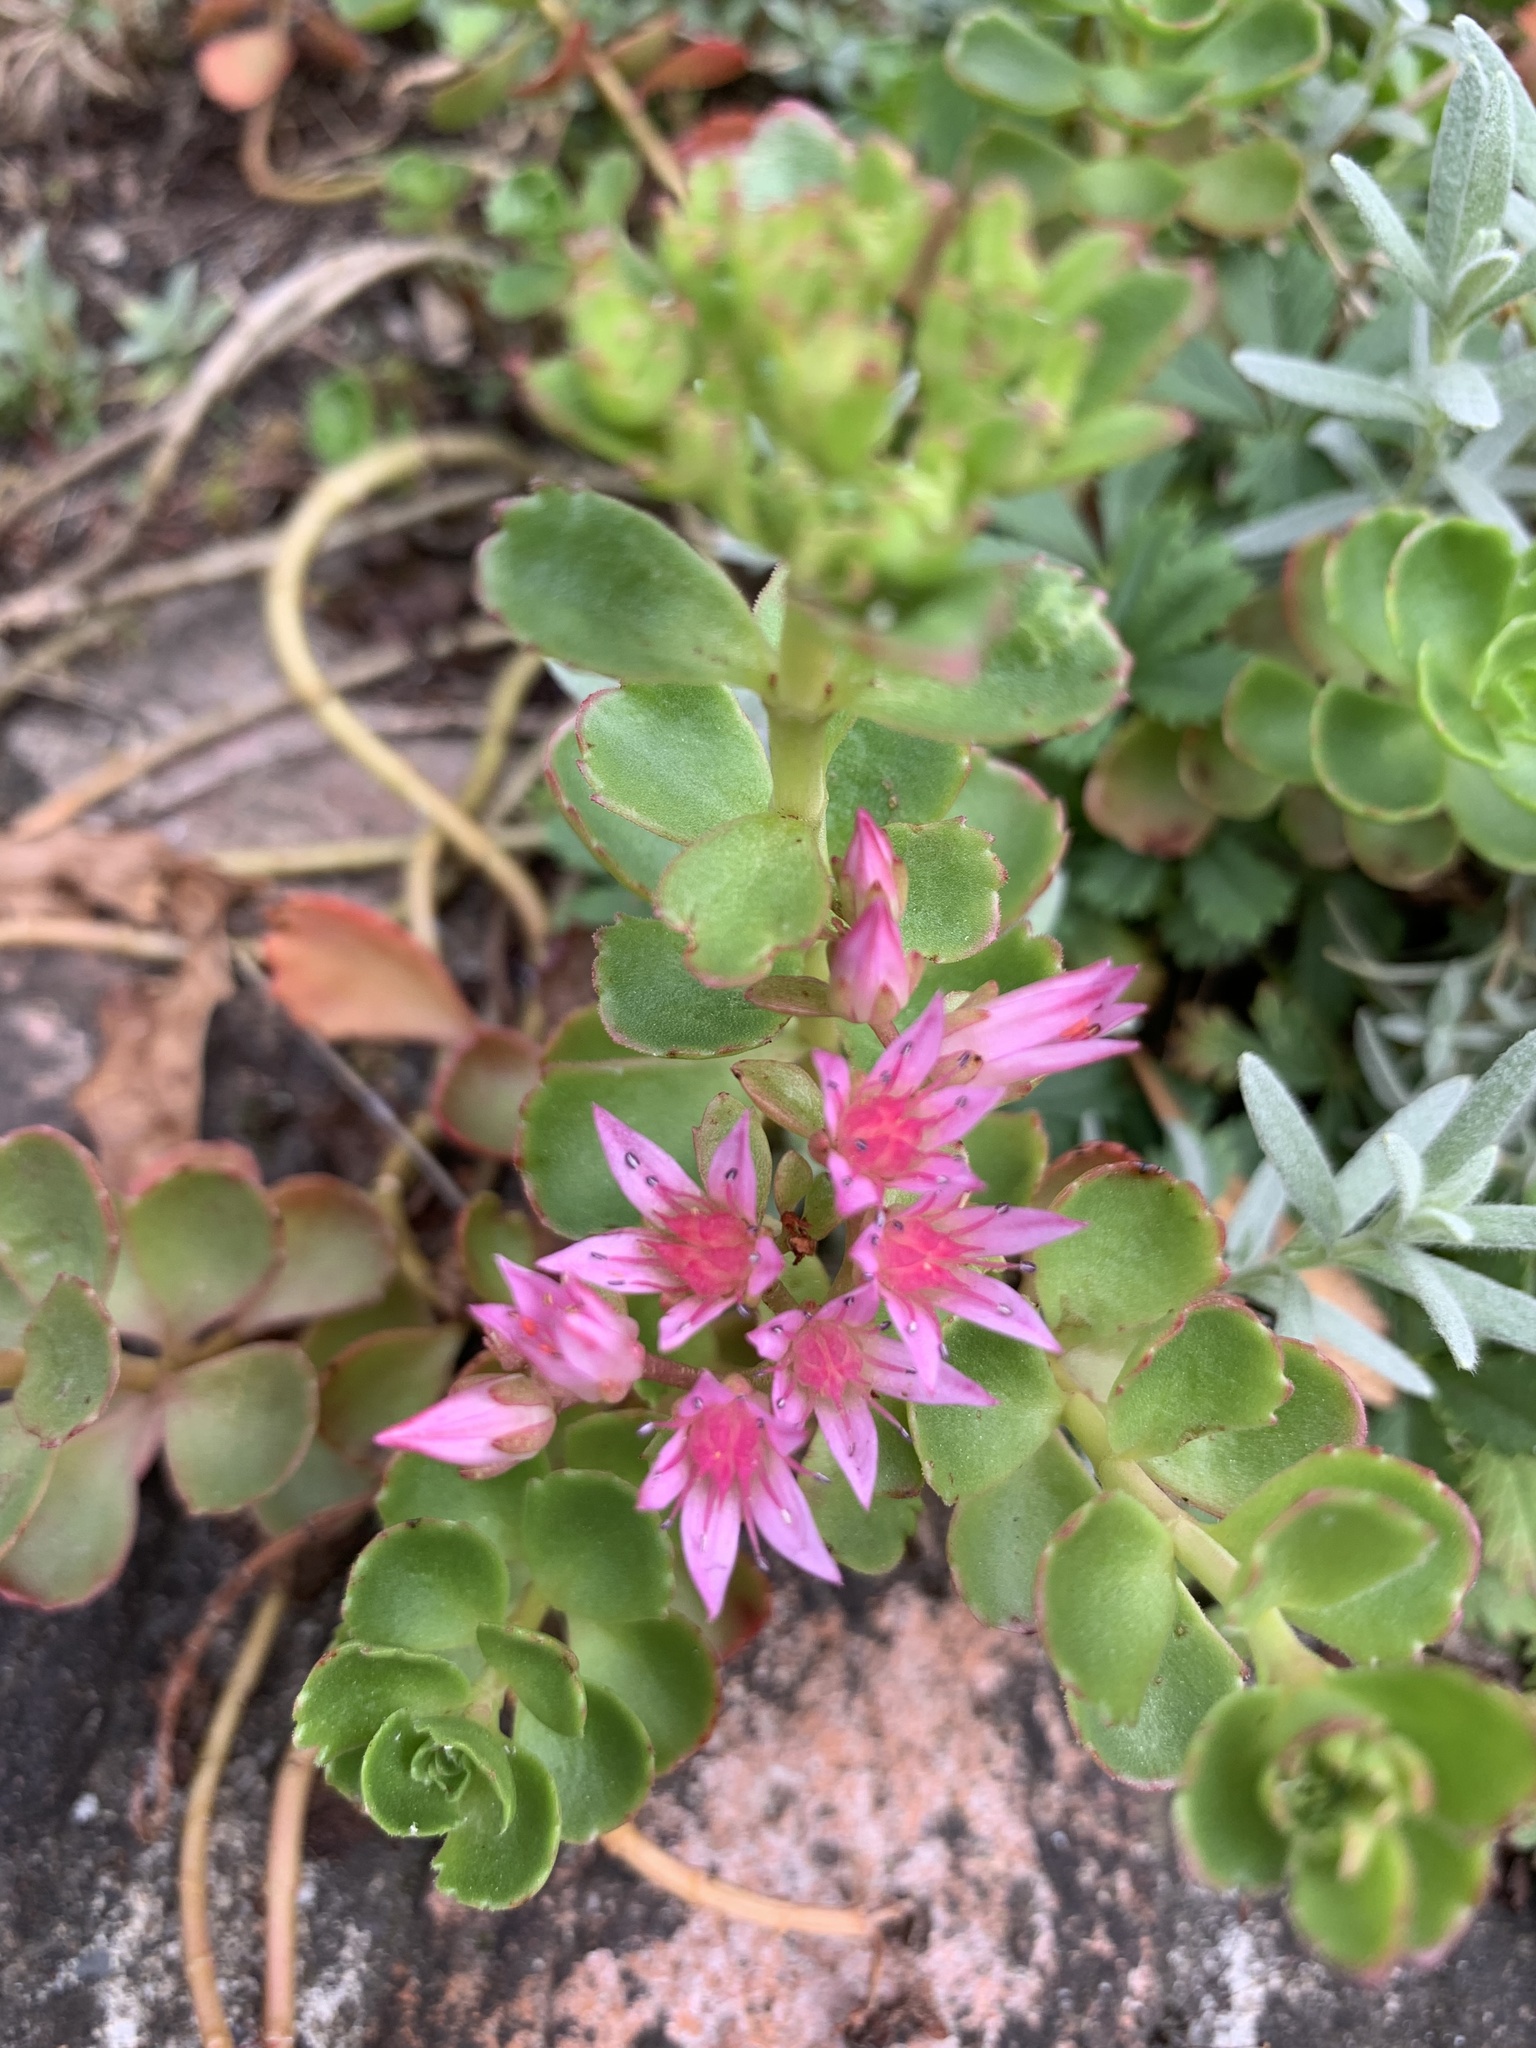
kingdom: Plantae
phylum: Tracheophyta
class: Magnoliopsida
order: Saxifragales
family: Crassulaceae
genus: Phedimus
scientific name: Phedimus spurius
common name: Caucasian stonecrop
